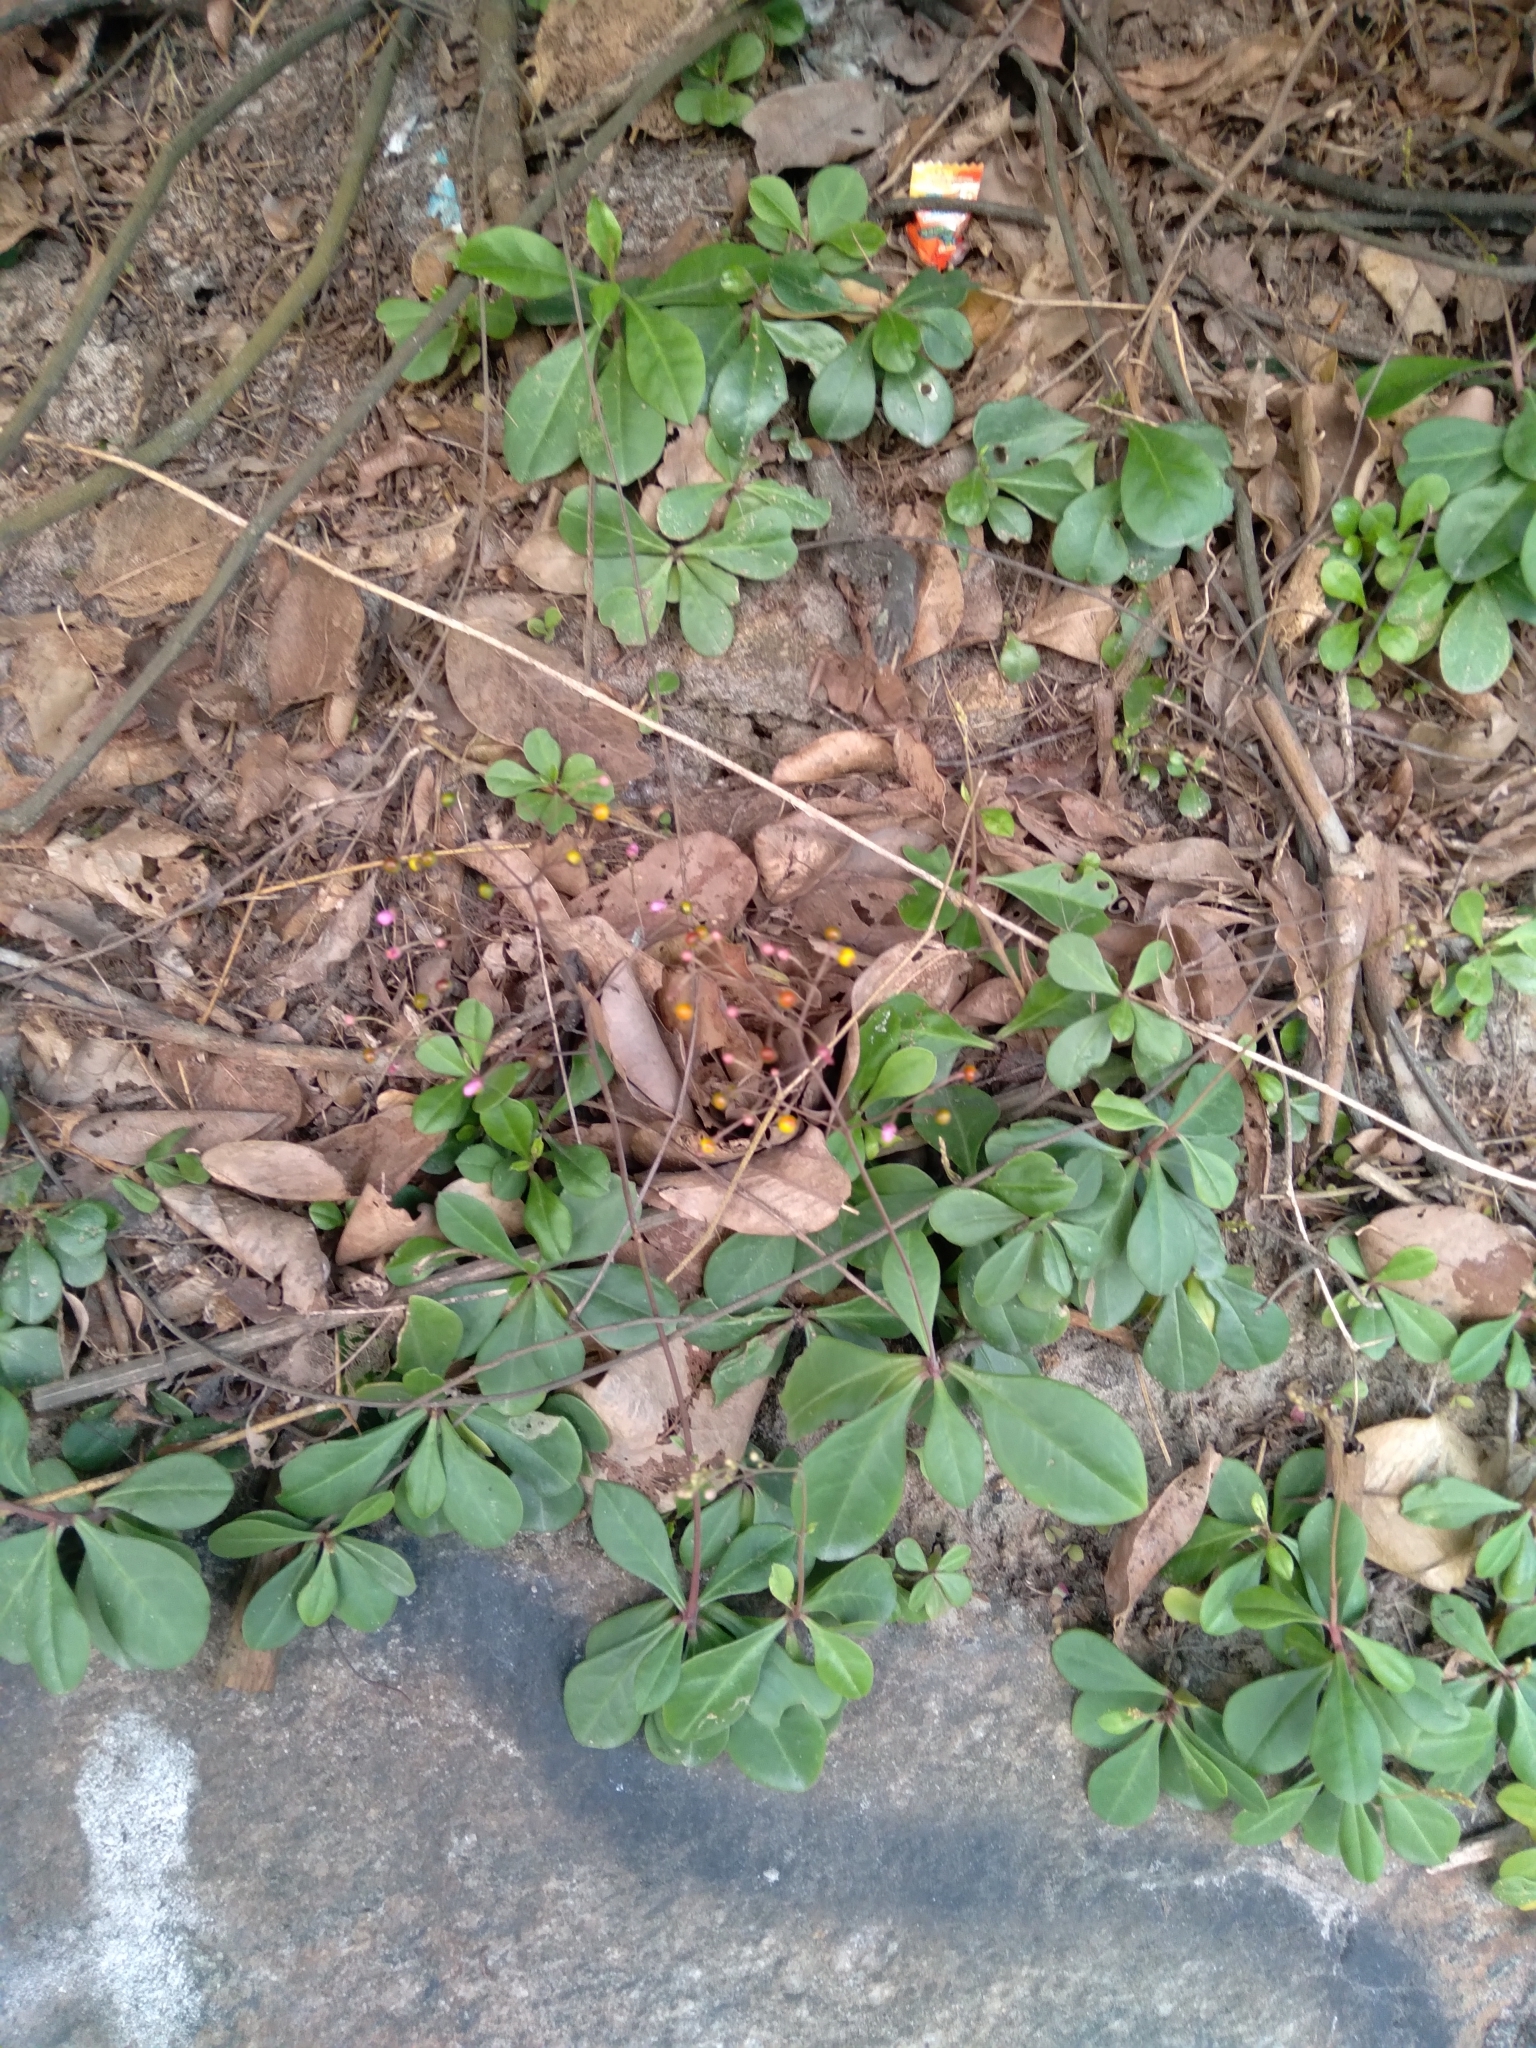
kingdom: Plantae
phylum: Tracheophyta
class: Magnoliopsida
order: Caryophyllales
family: Talinaceae
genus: Talinum
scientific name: Talinum paniculatum
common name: Jewels of opar
